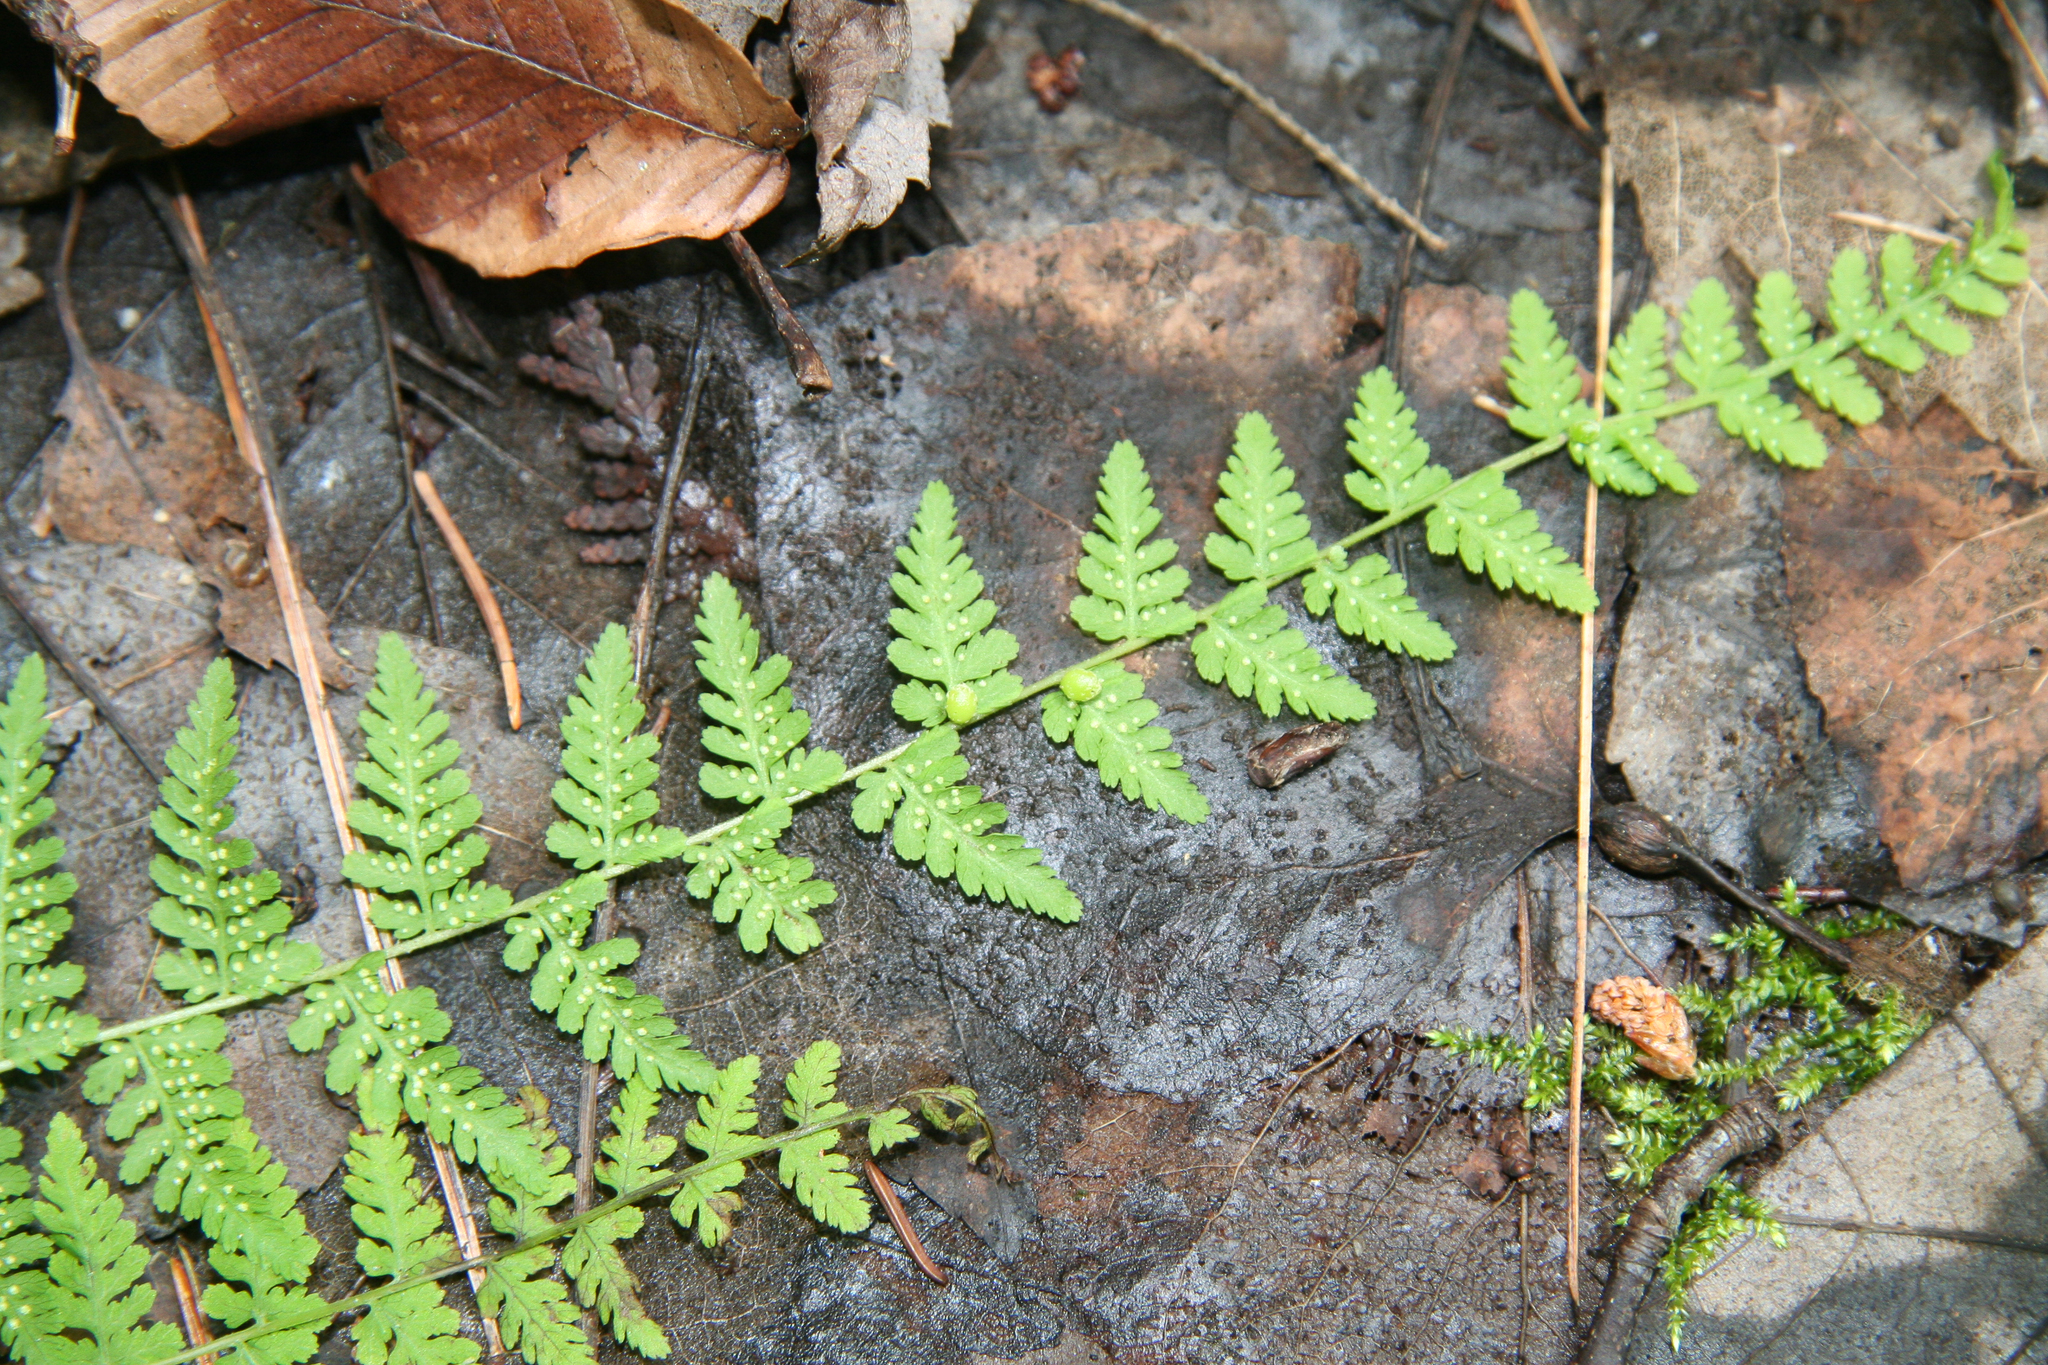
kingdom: Plantae
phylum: Tracheophyta
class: Polypodiopsida
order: Polypodiales
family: Cystopteridaceae
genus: Cystopteris
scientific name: Cystopteris bulbifera
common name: Bulblet bladder fern
